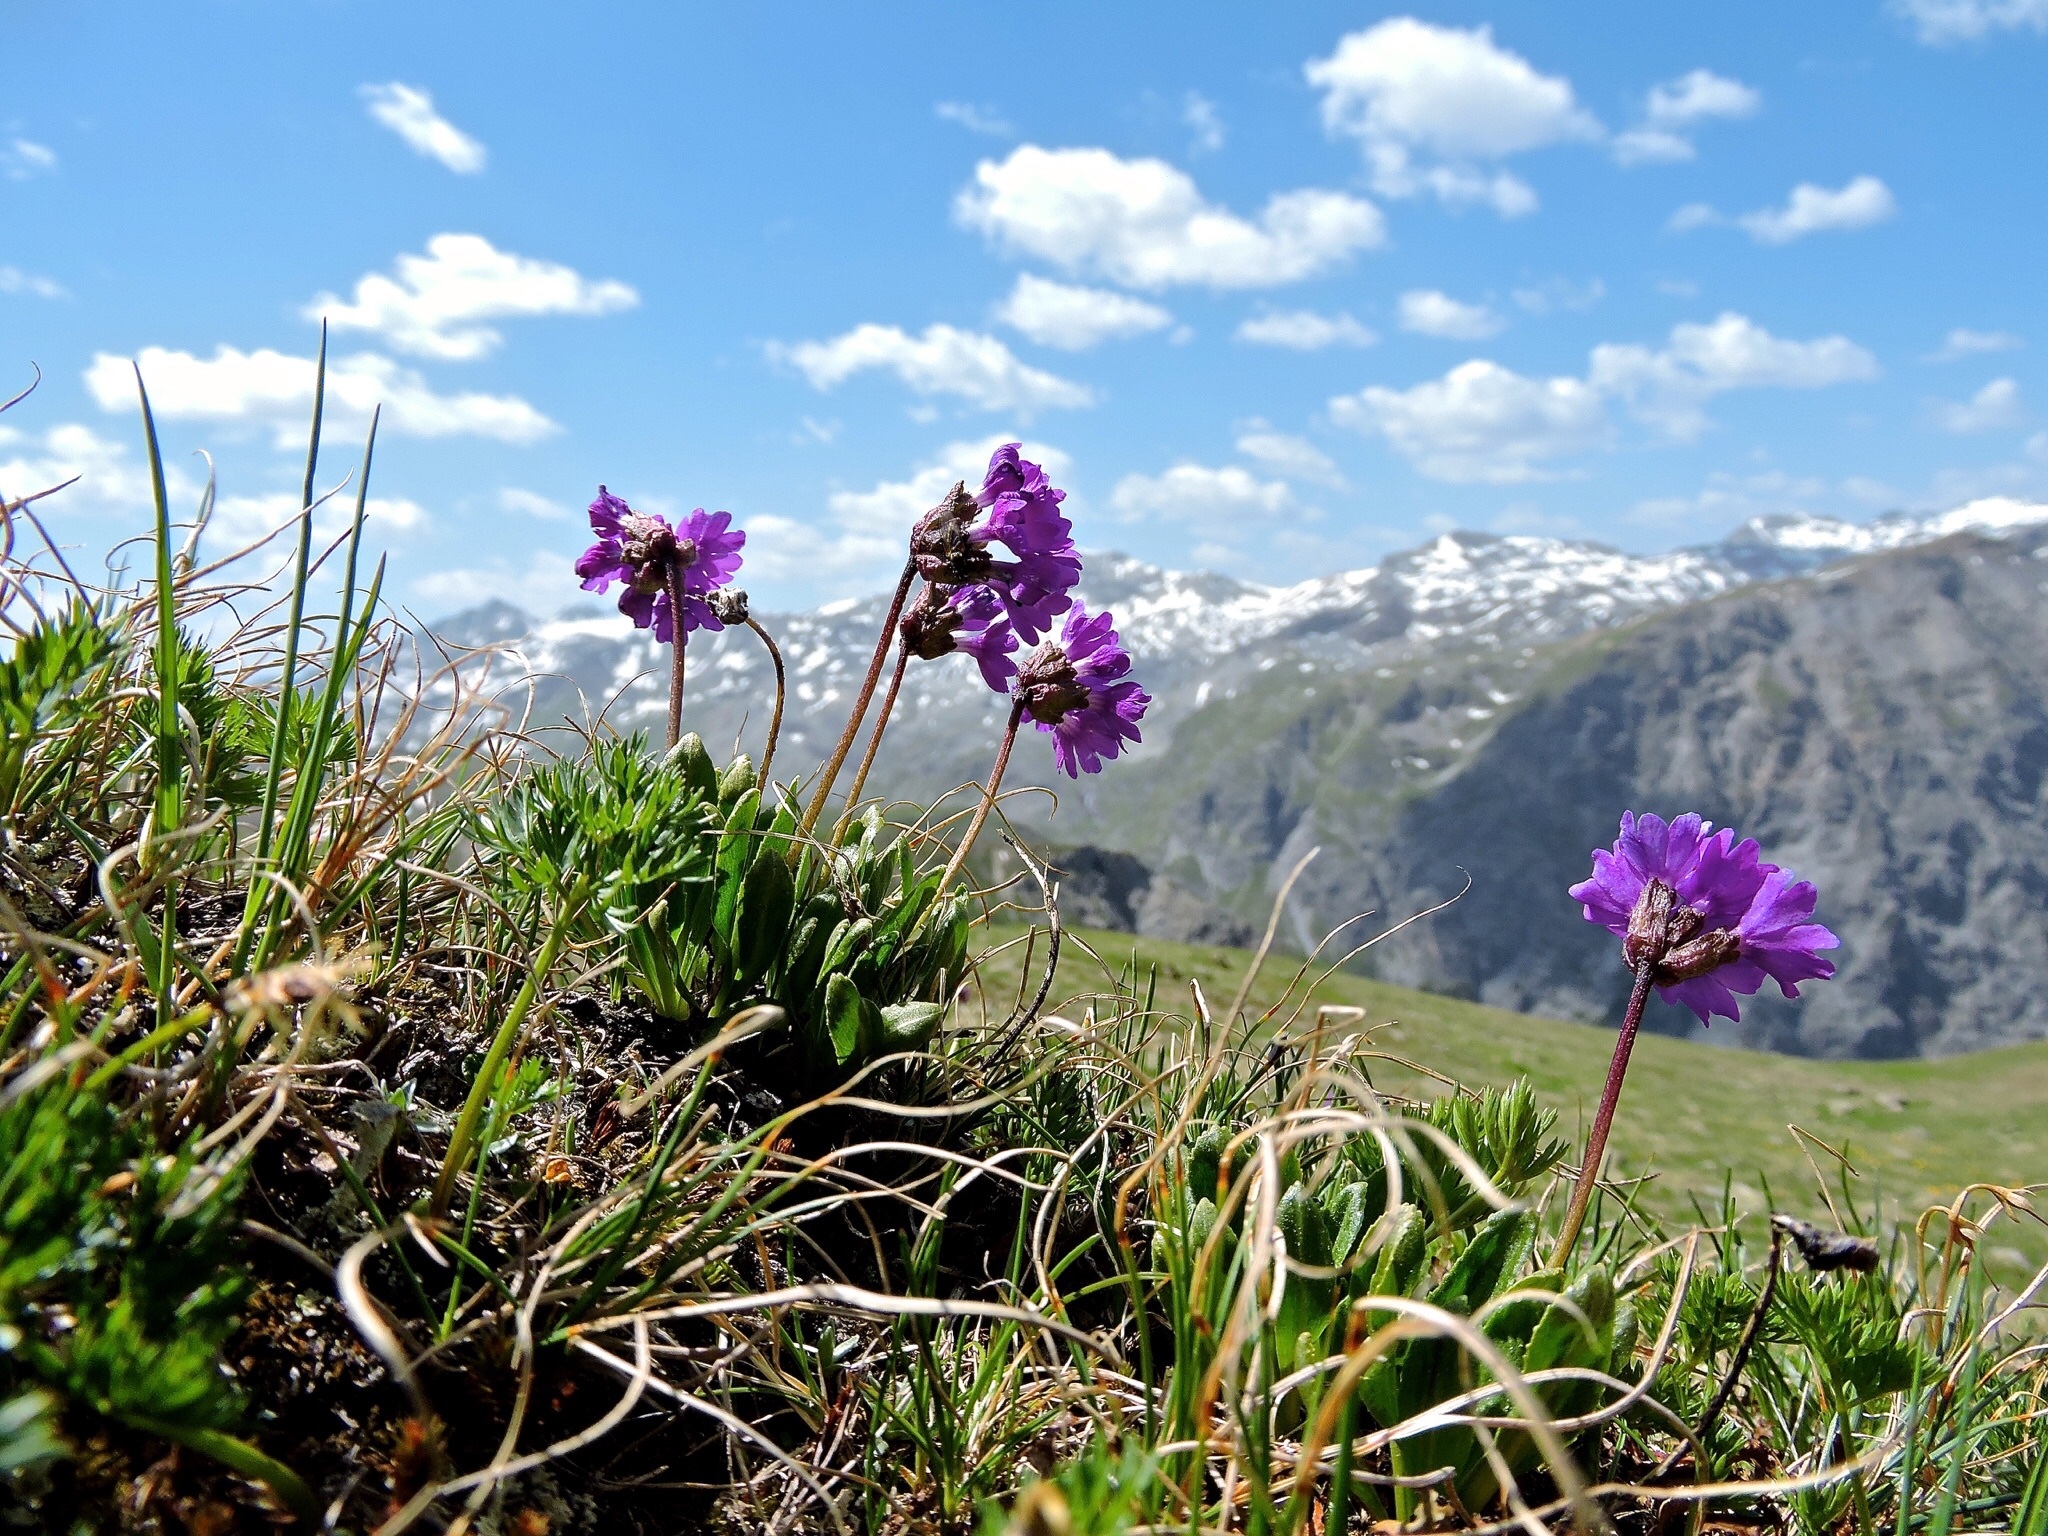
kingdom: Plantae
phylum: Tracheophyta
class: Magnoliopsida
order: Ericales
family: Primulaceae
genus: Primula
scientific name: Primula glutinosa
